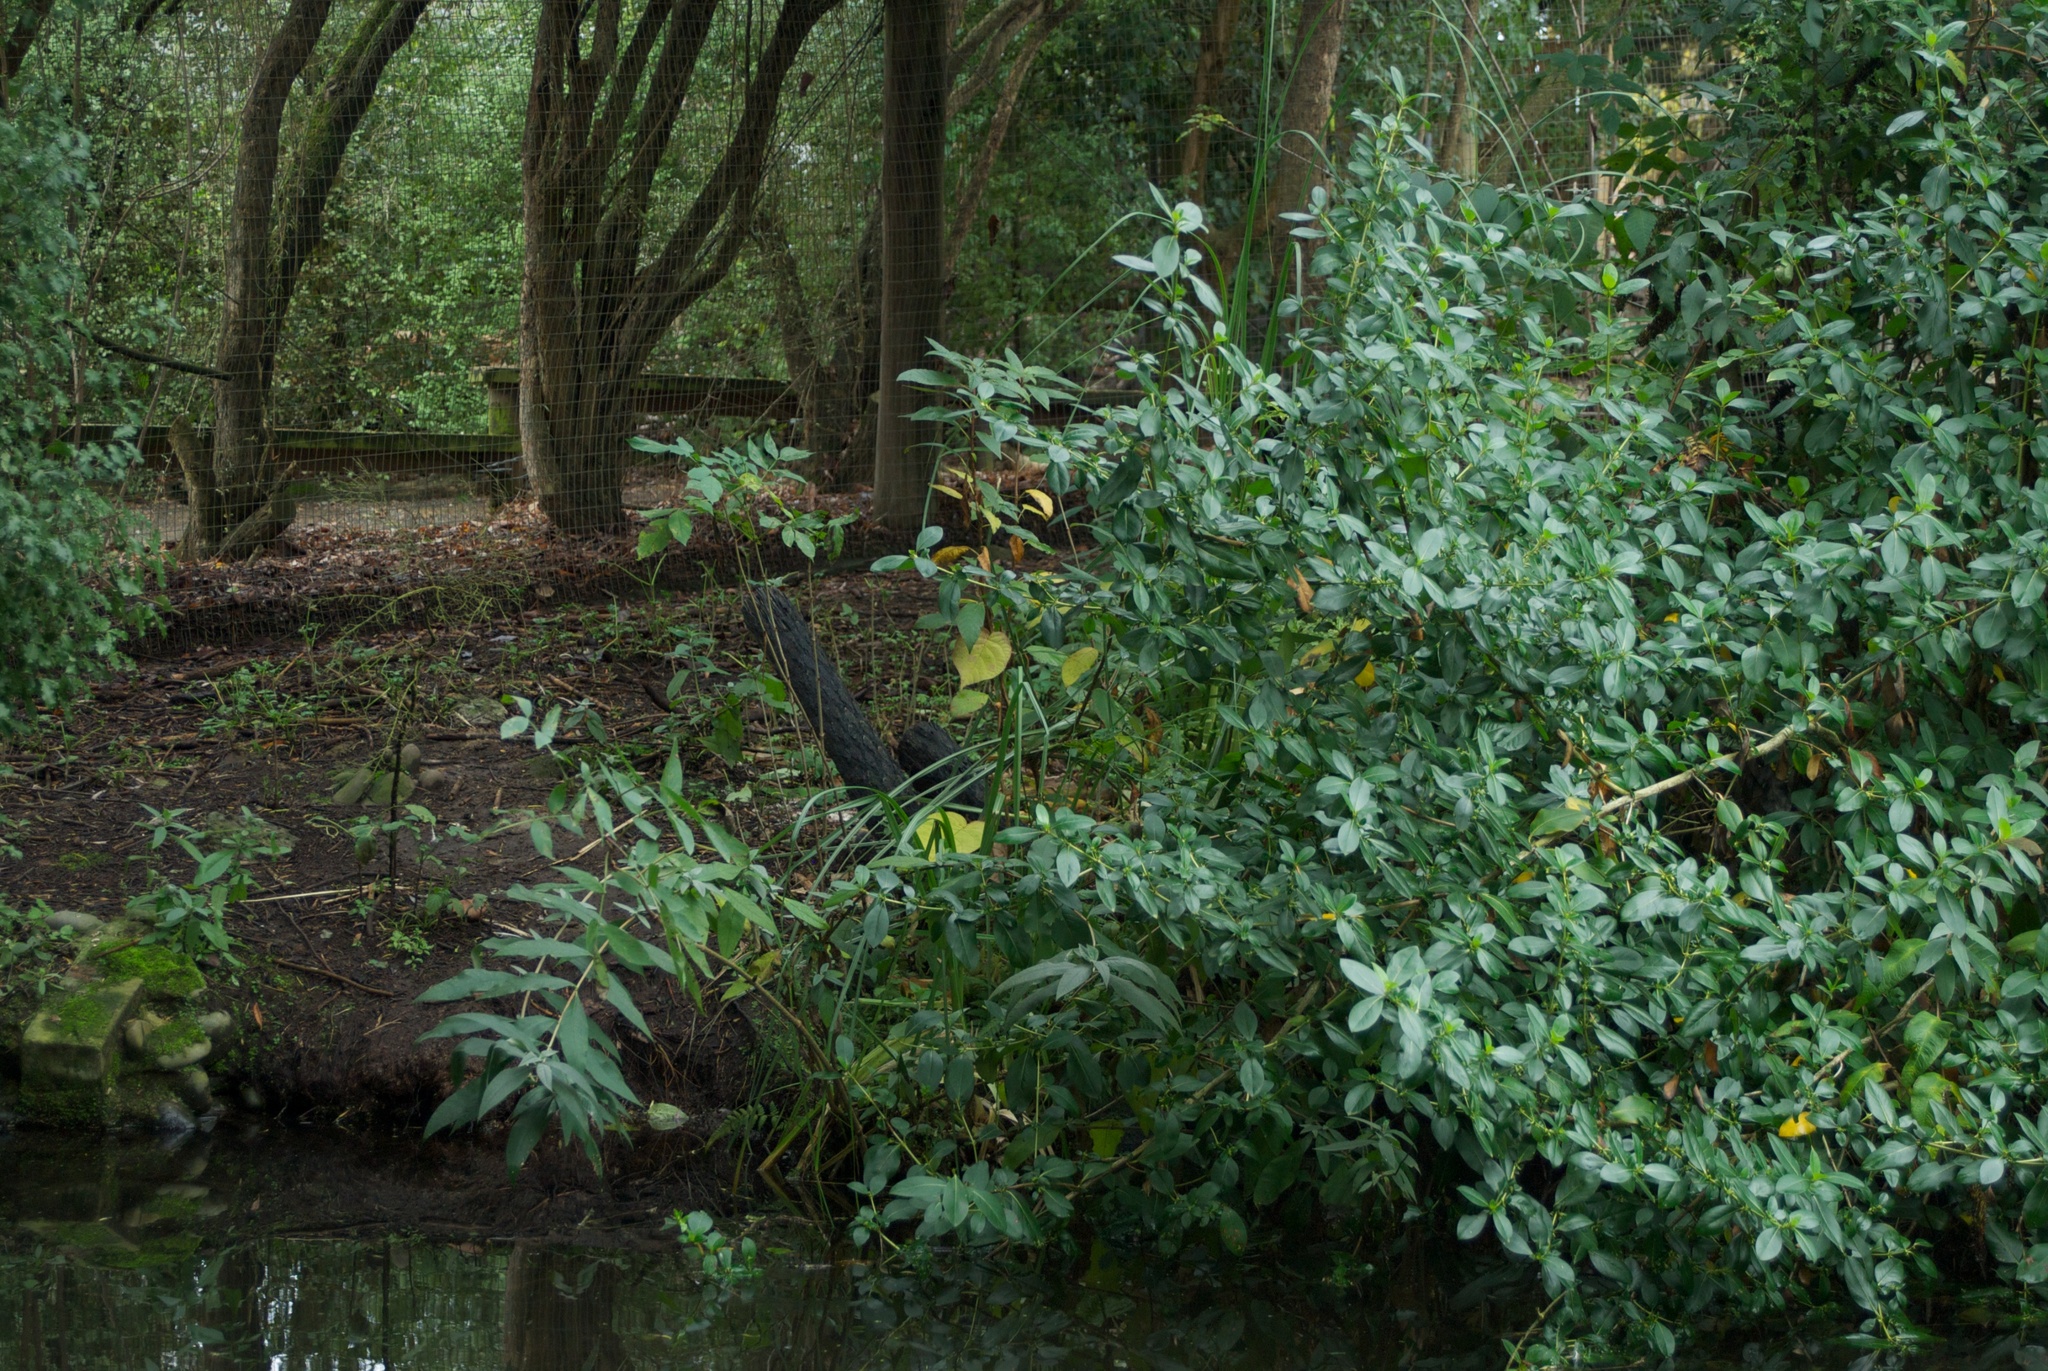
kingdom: Plantae
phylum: Tracheophyta
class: Magnoliopsida
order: Ericales
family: Actinidiaceae
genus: Actinidia
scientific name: Actinidia chinensis
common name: Kiwi
